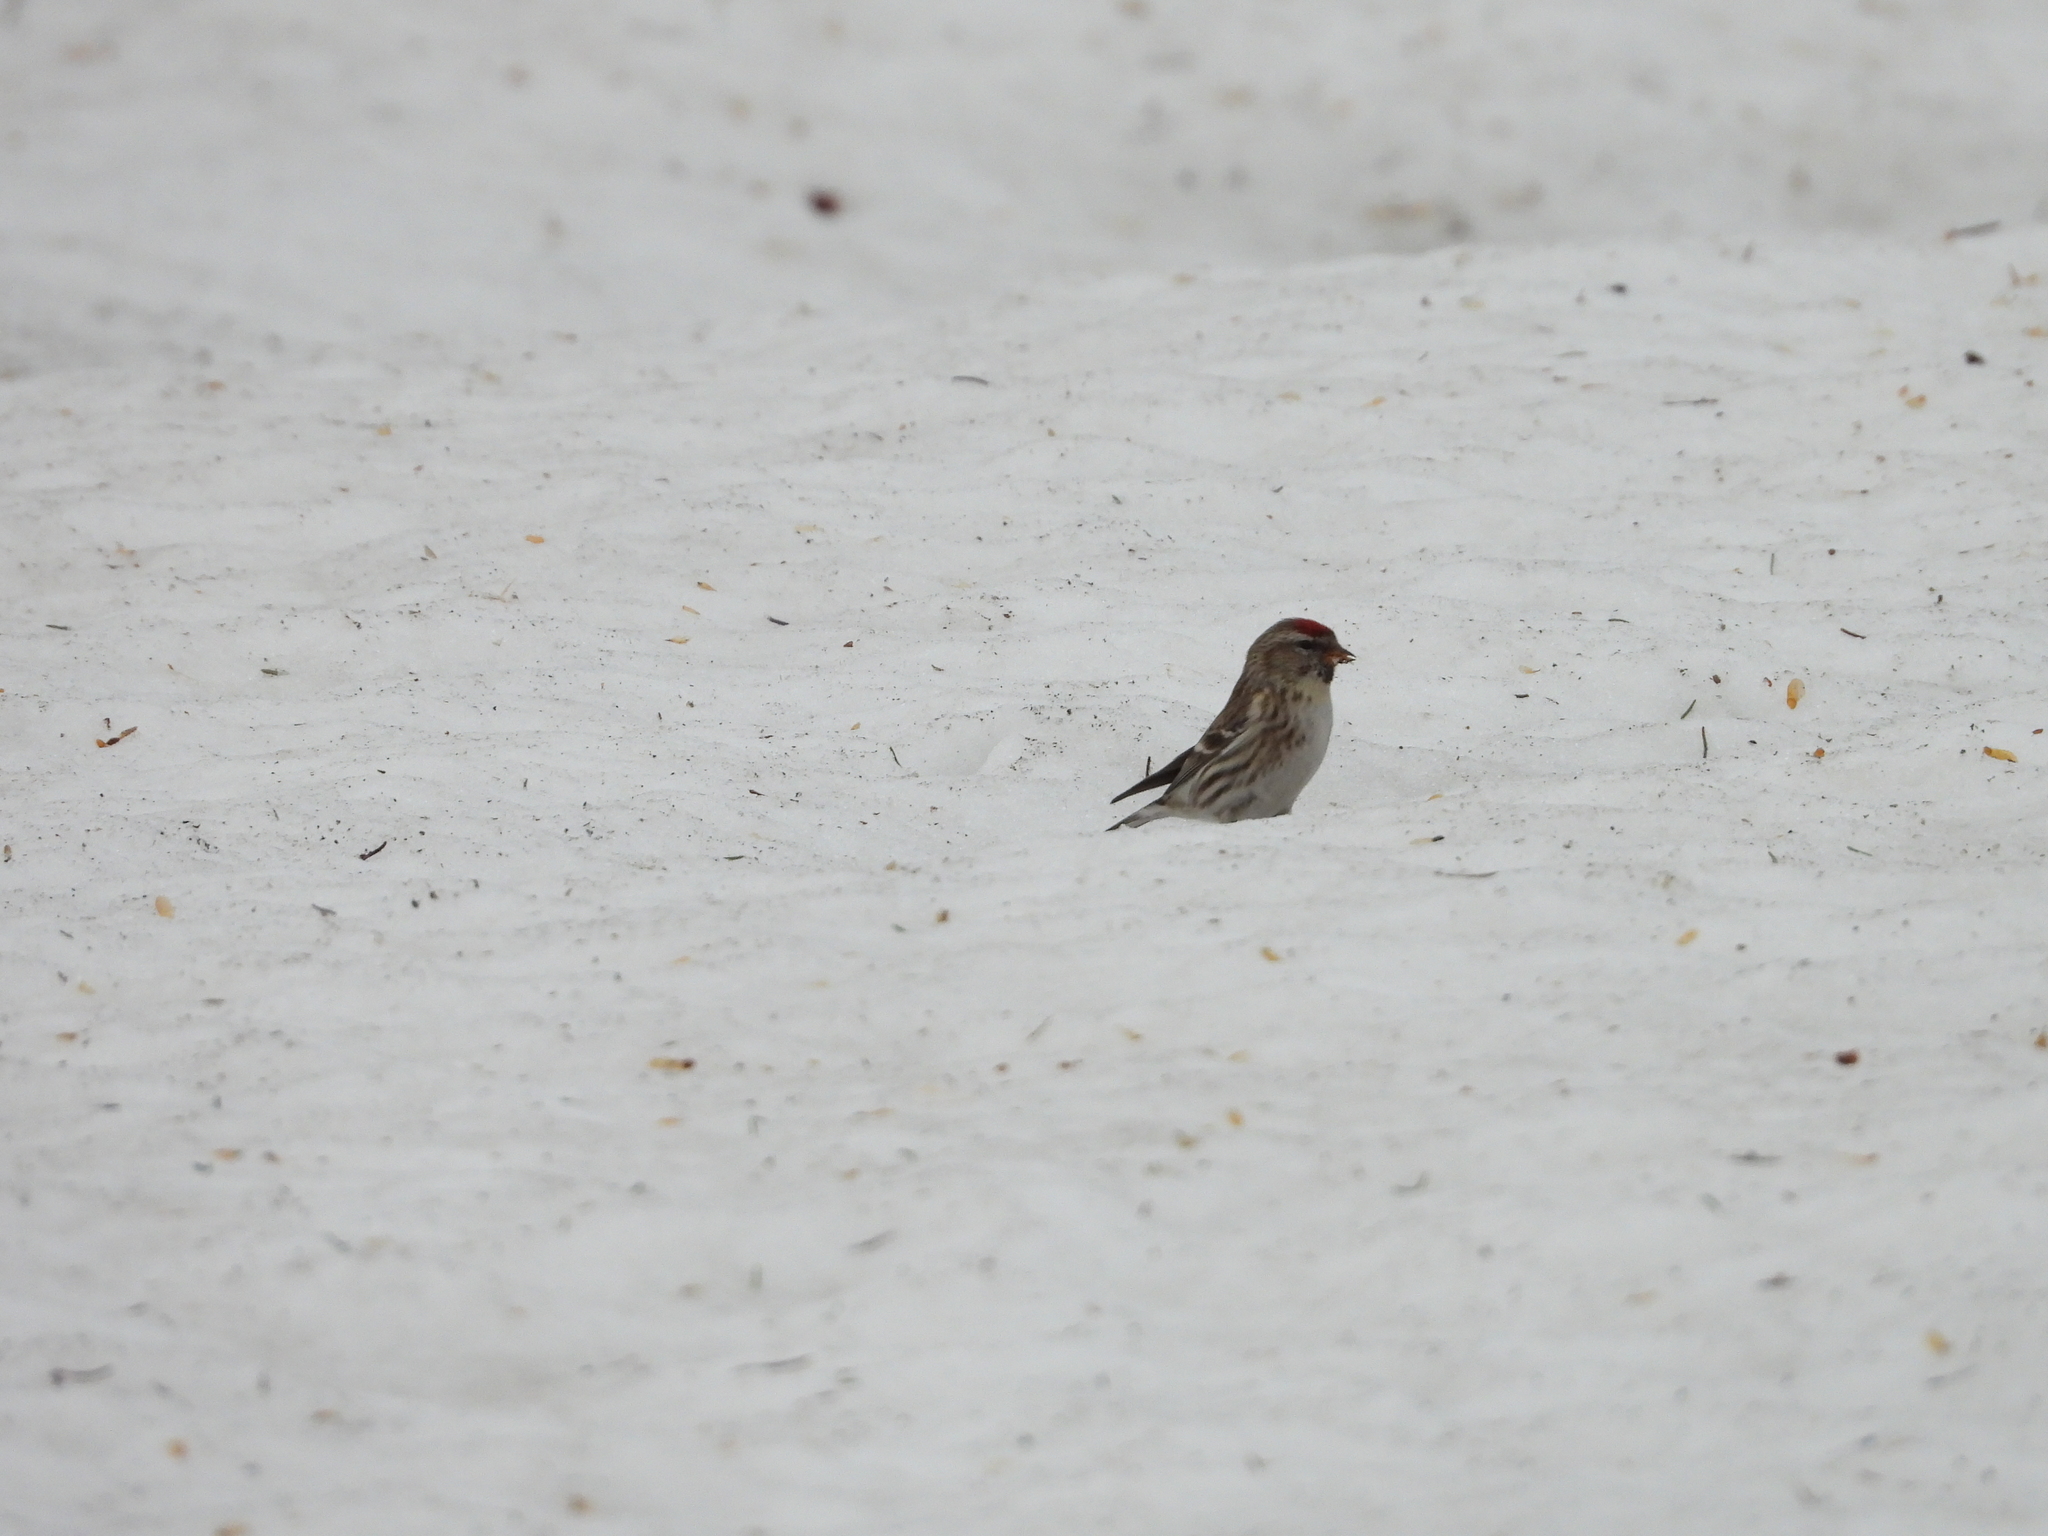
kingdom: Animalia
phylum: Chordata
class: Aves
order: Passeriformes
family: Fringillidae
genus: Acanthis
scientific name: Acanthis flammea
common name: Common redpoll
